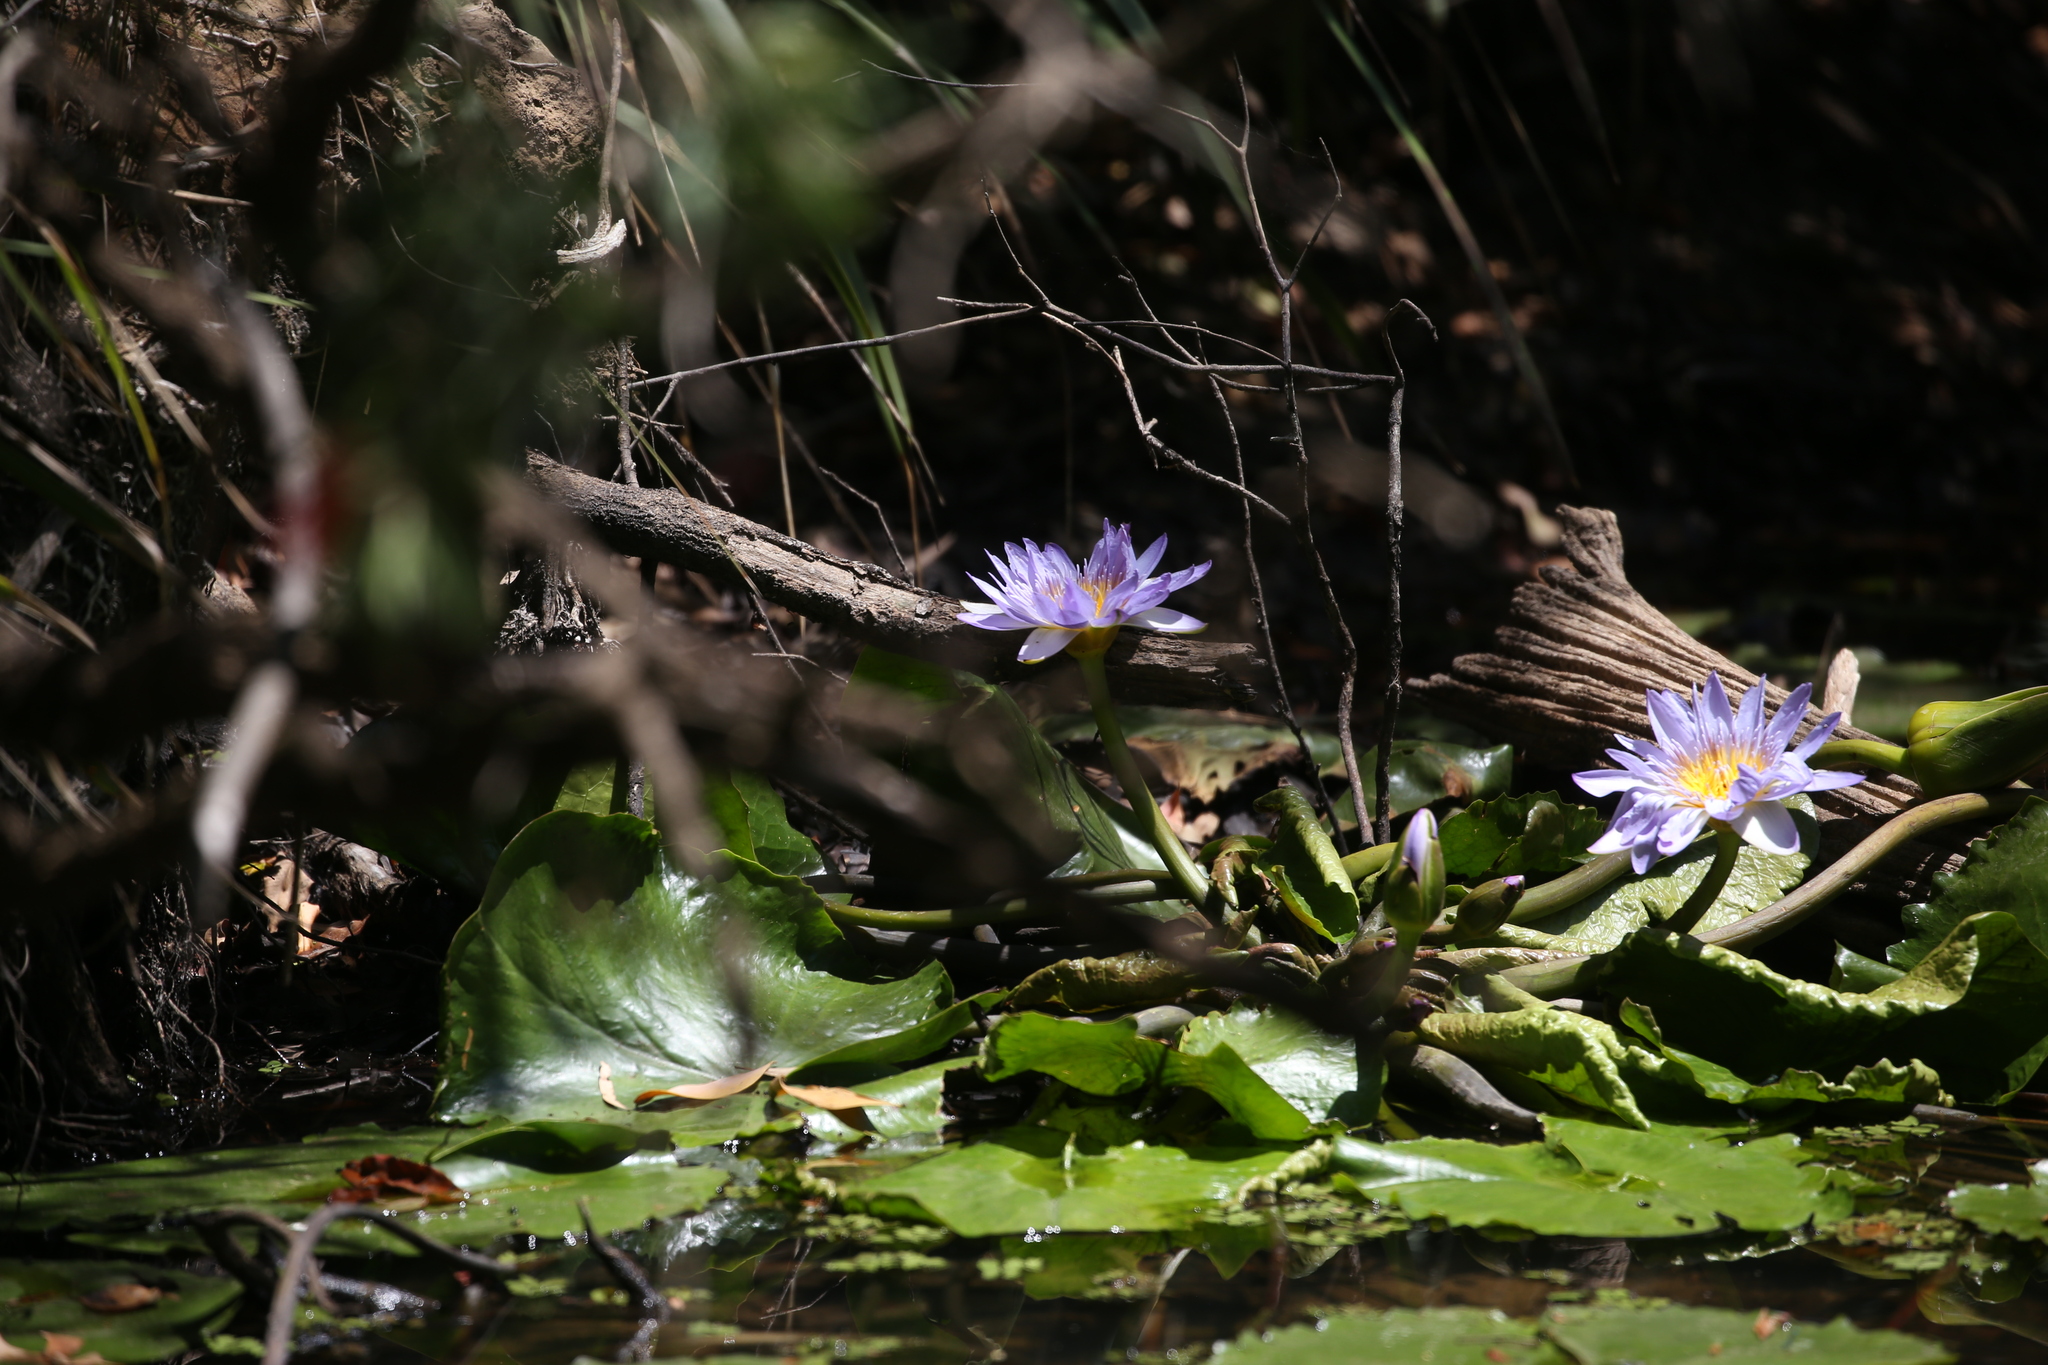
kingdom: Plantae
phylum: Tracheophyta
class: Magnoliopsida
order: Nymphaeales
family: Nymphaeaceae
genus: Nymphaea
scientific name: Nymphaea nouchali
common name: Blue lotus
